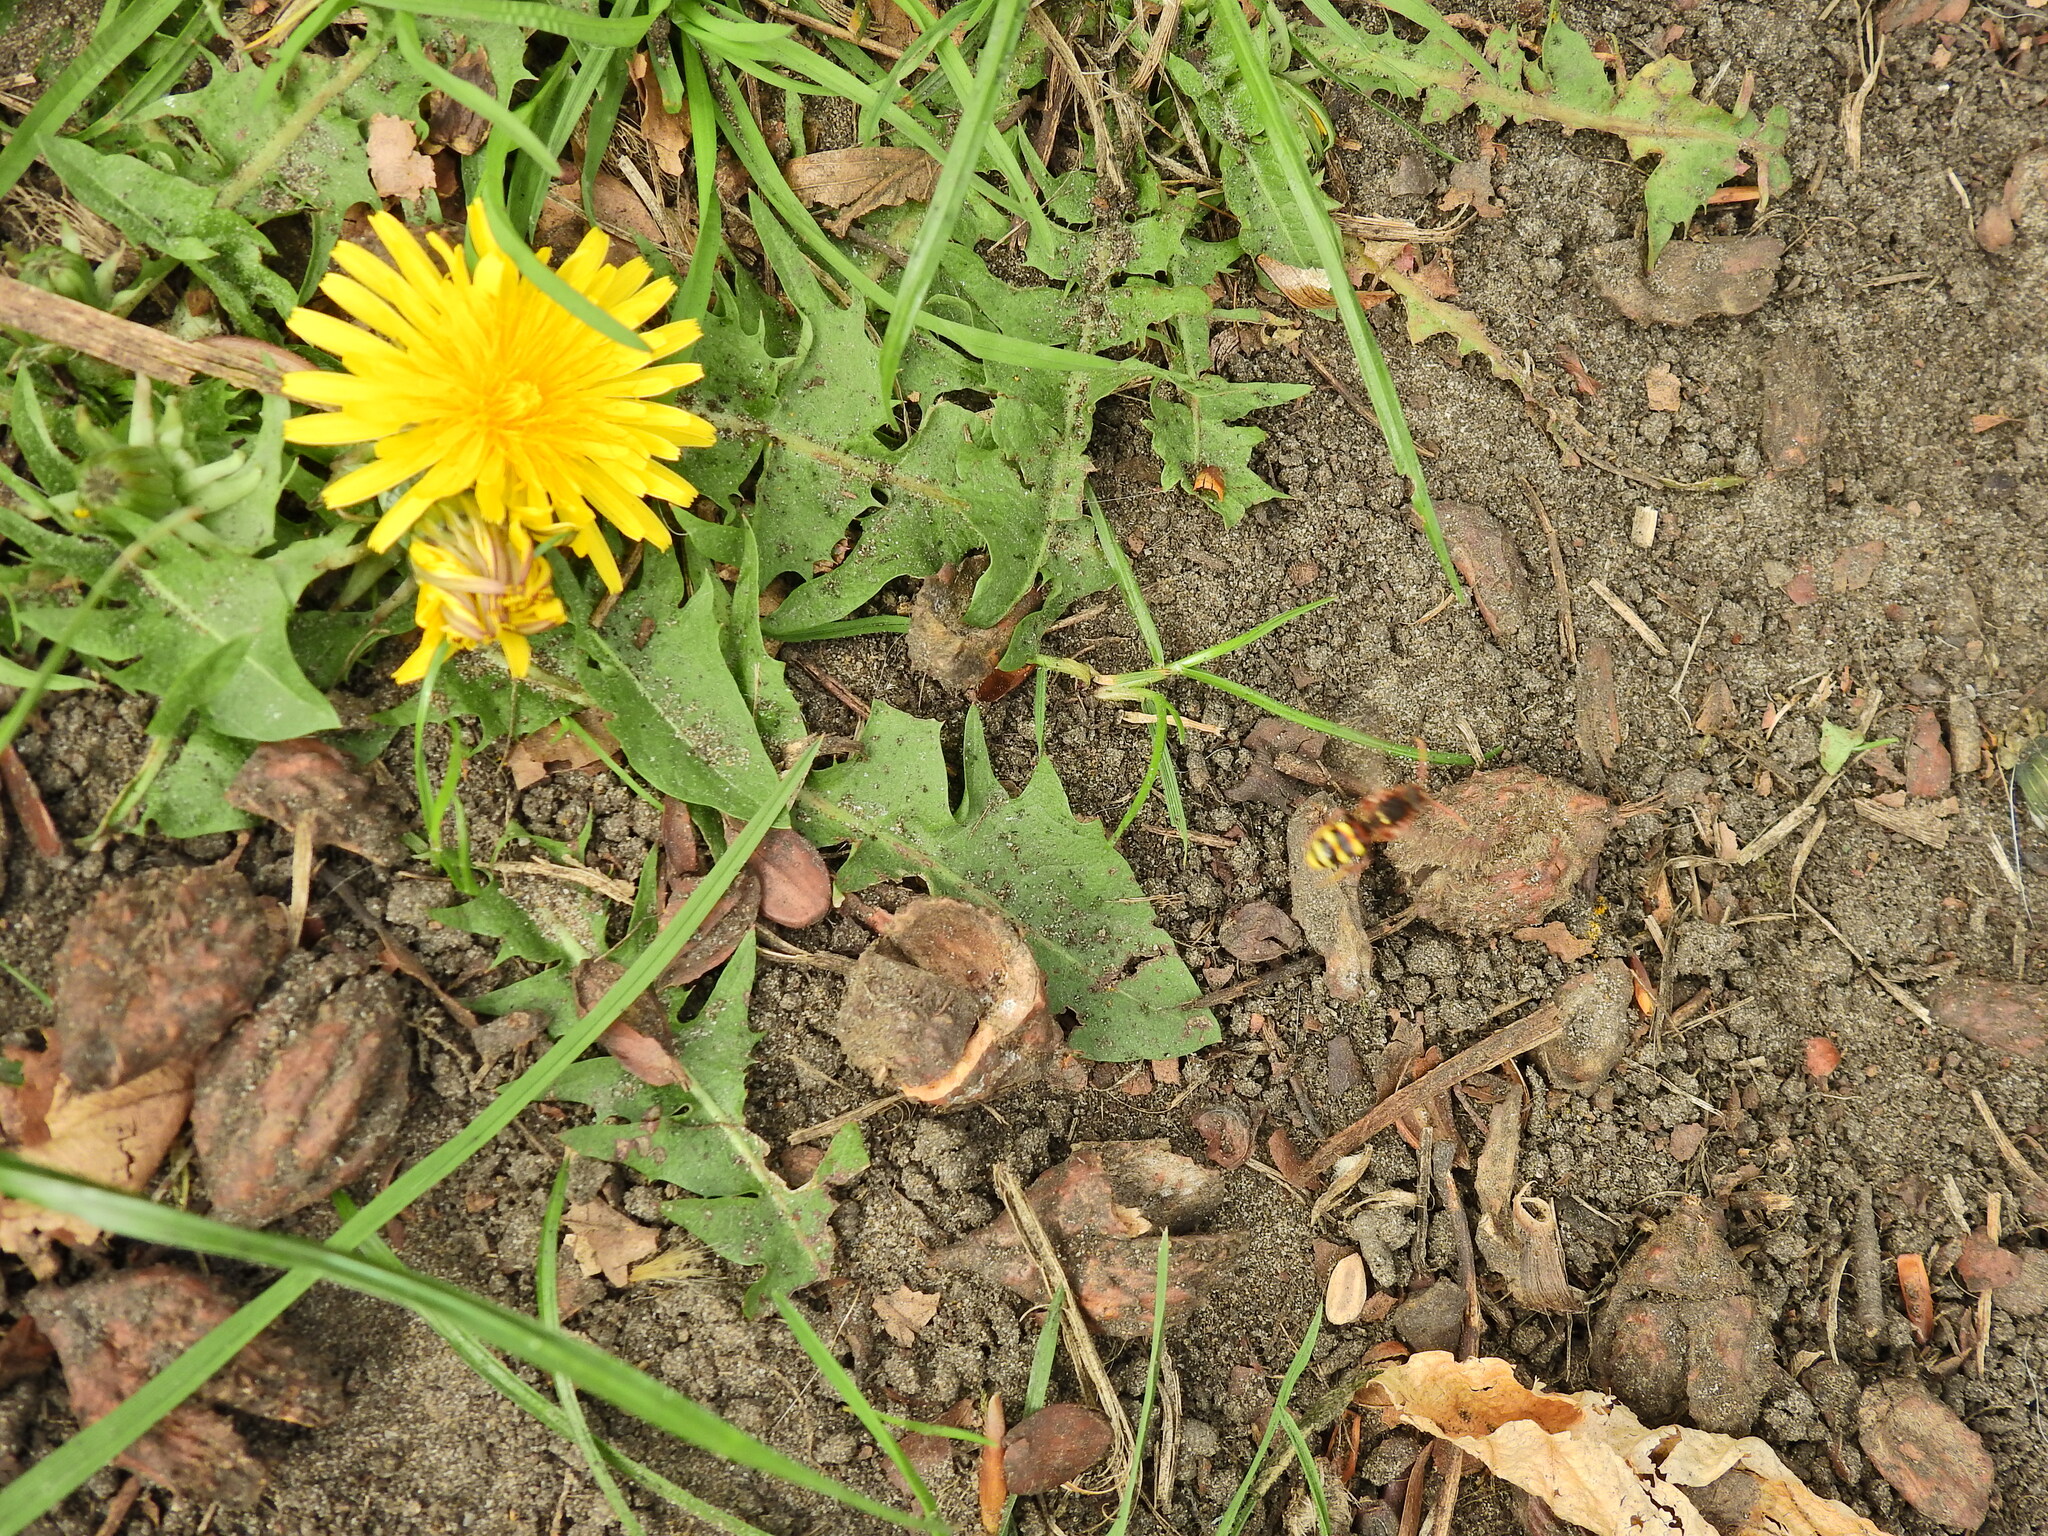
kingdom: Animalia
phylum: Arthropoda
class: Insecta
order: Hymenoptera
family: Apidae
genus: Nomada
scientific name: Nomada lathburiana
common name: Lathbury's nomad bee
